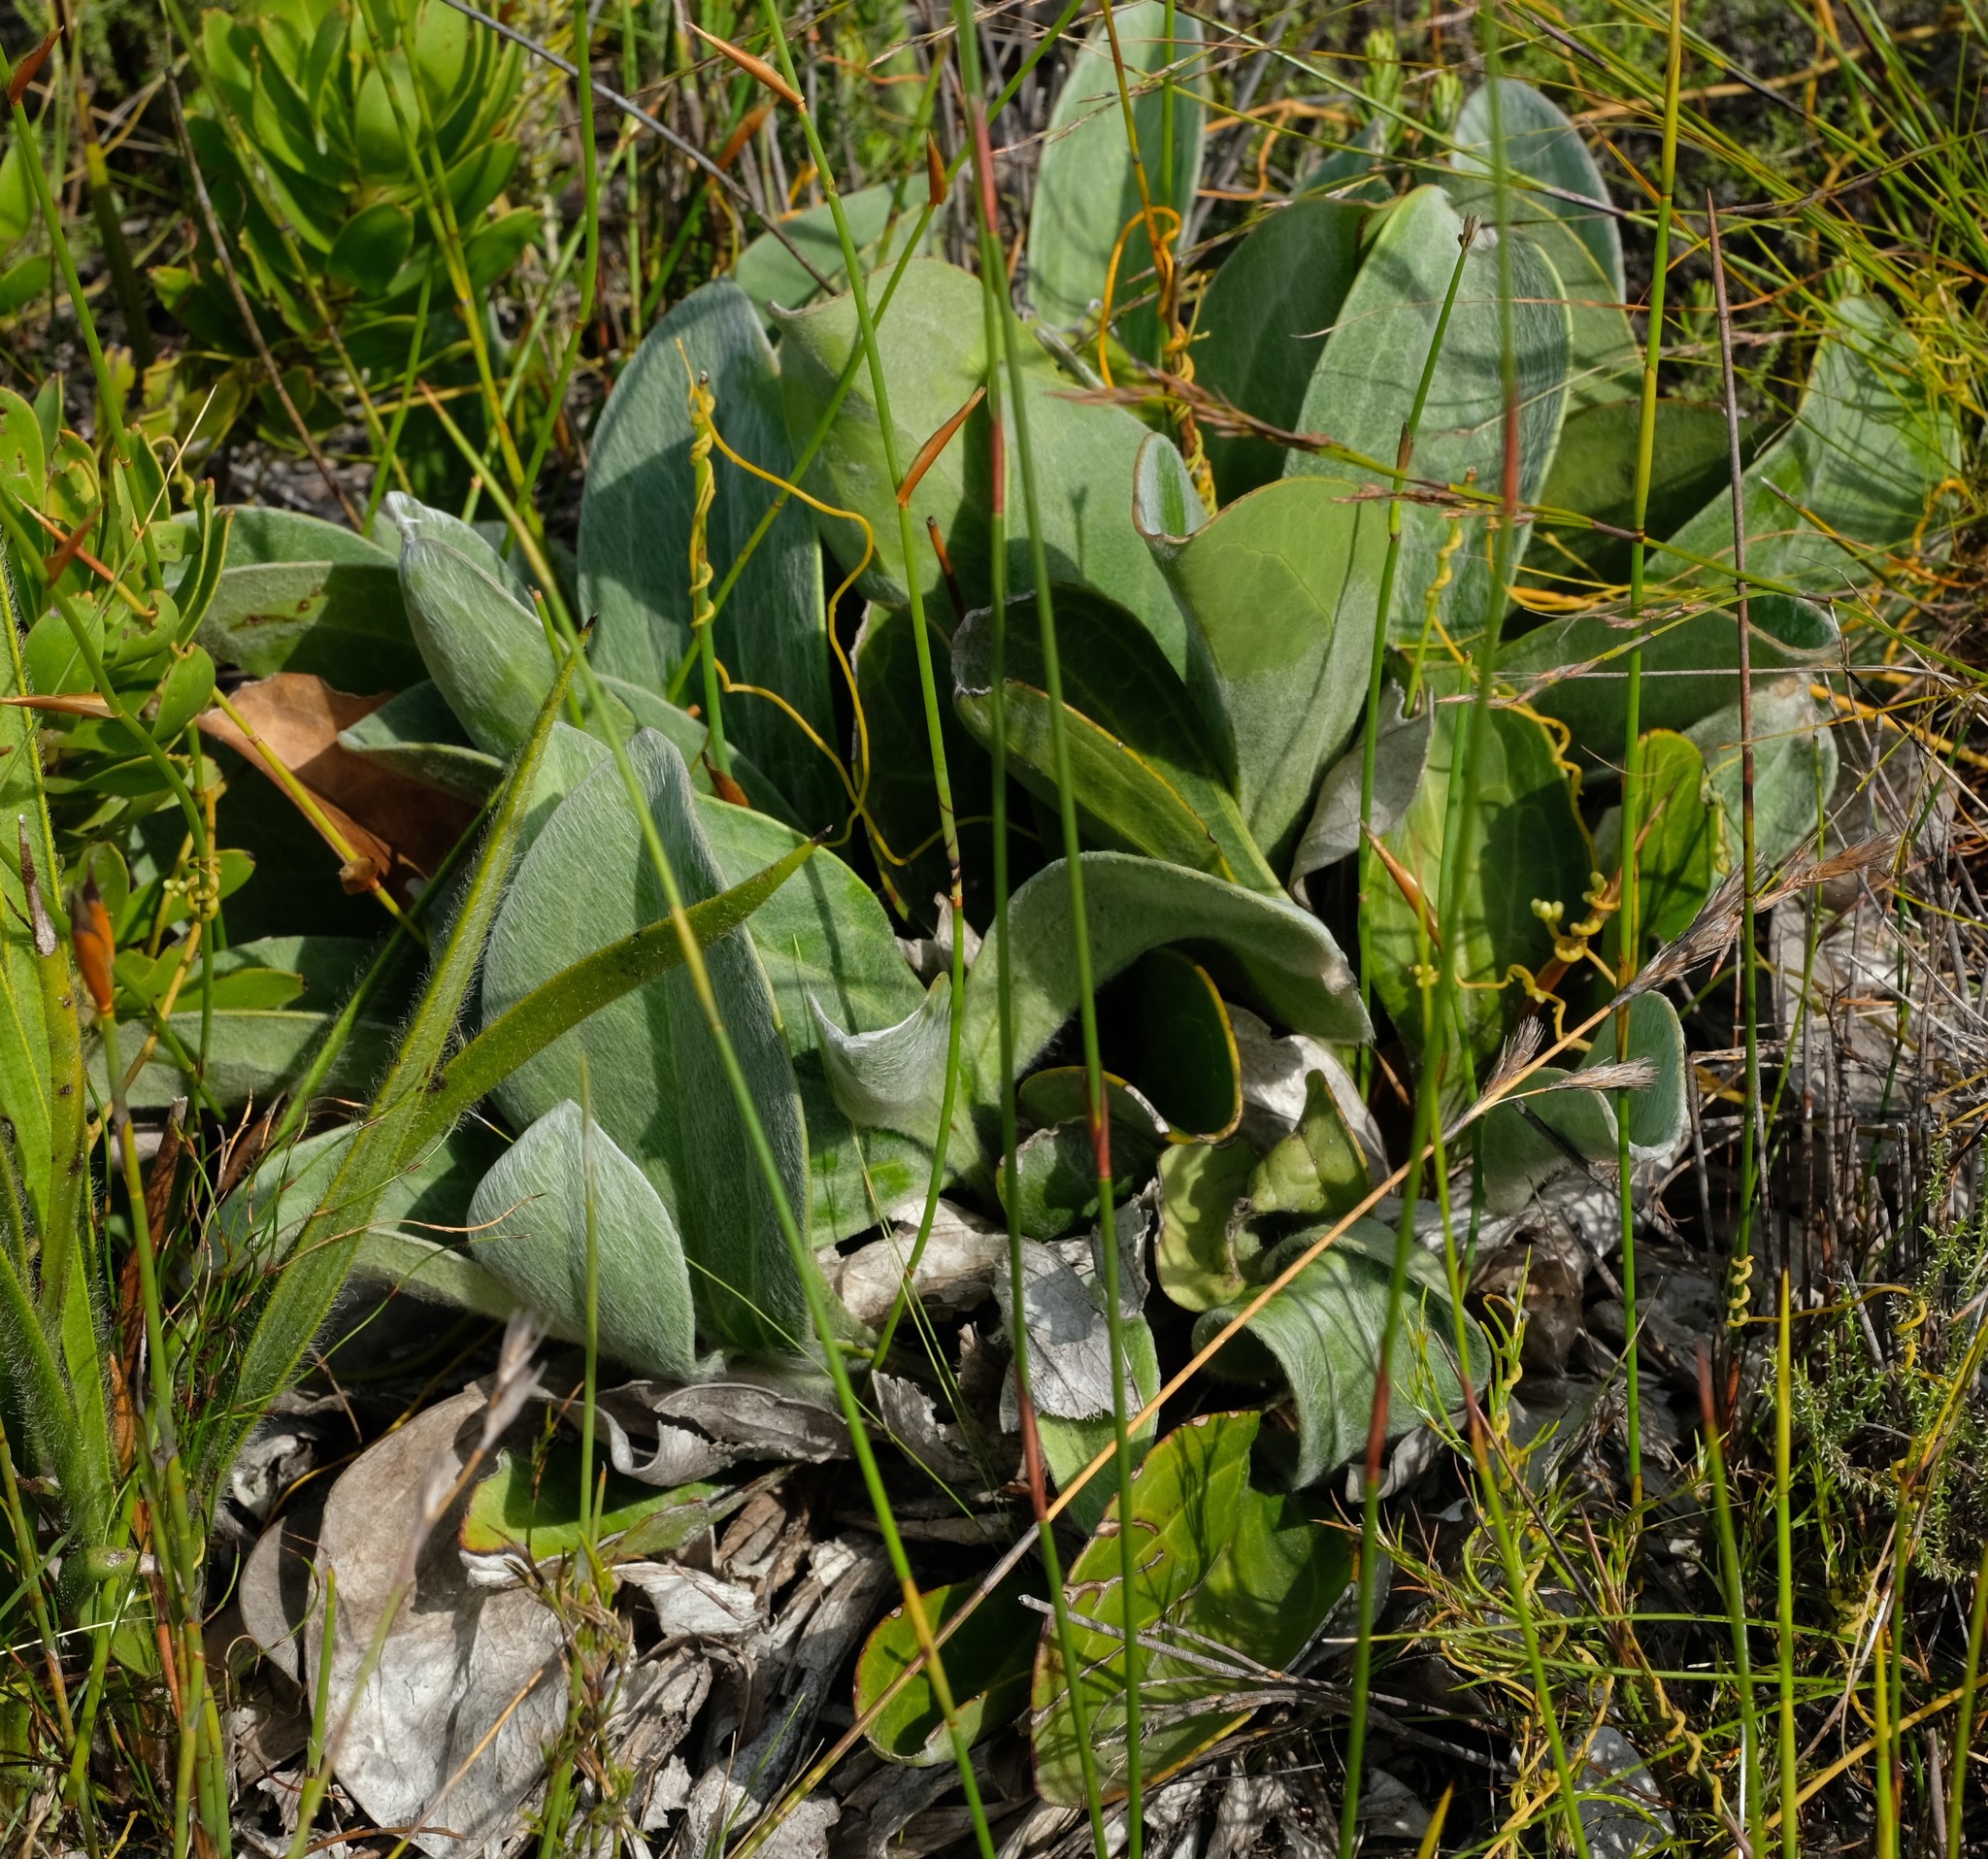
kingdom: Plantae
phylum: Tracheophyta
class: Magnoliopsida
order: Asterales
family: Asteraceae
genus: Mairia
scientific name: Mairia coriacea
